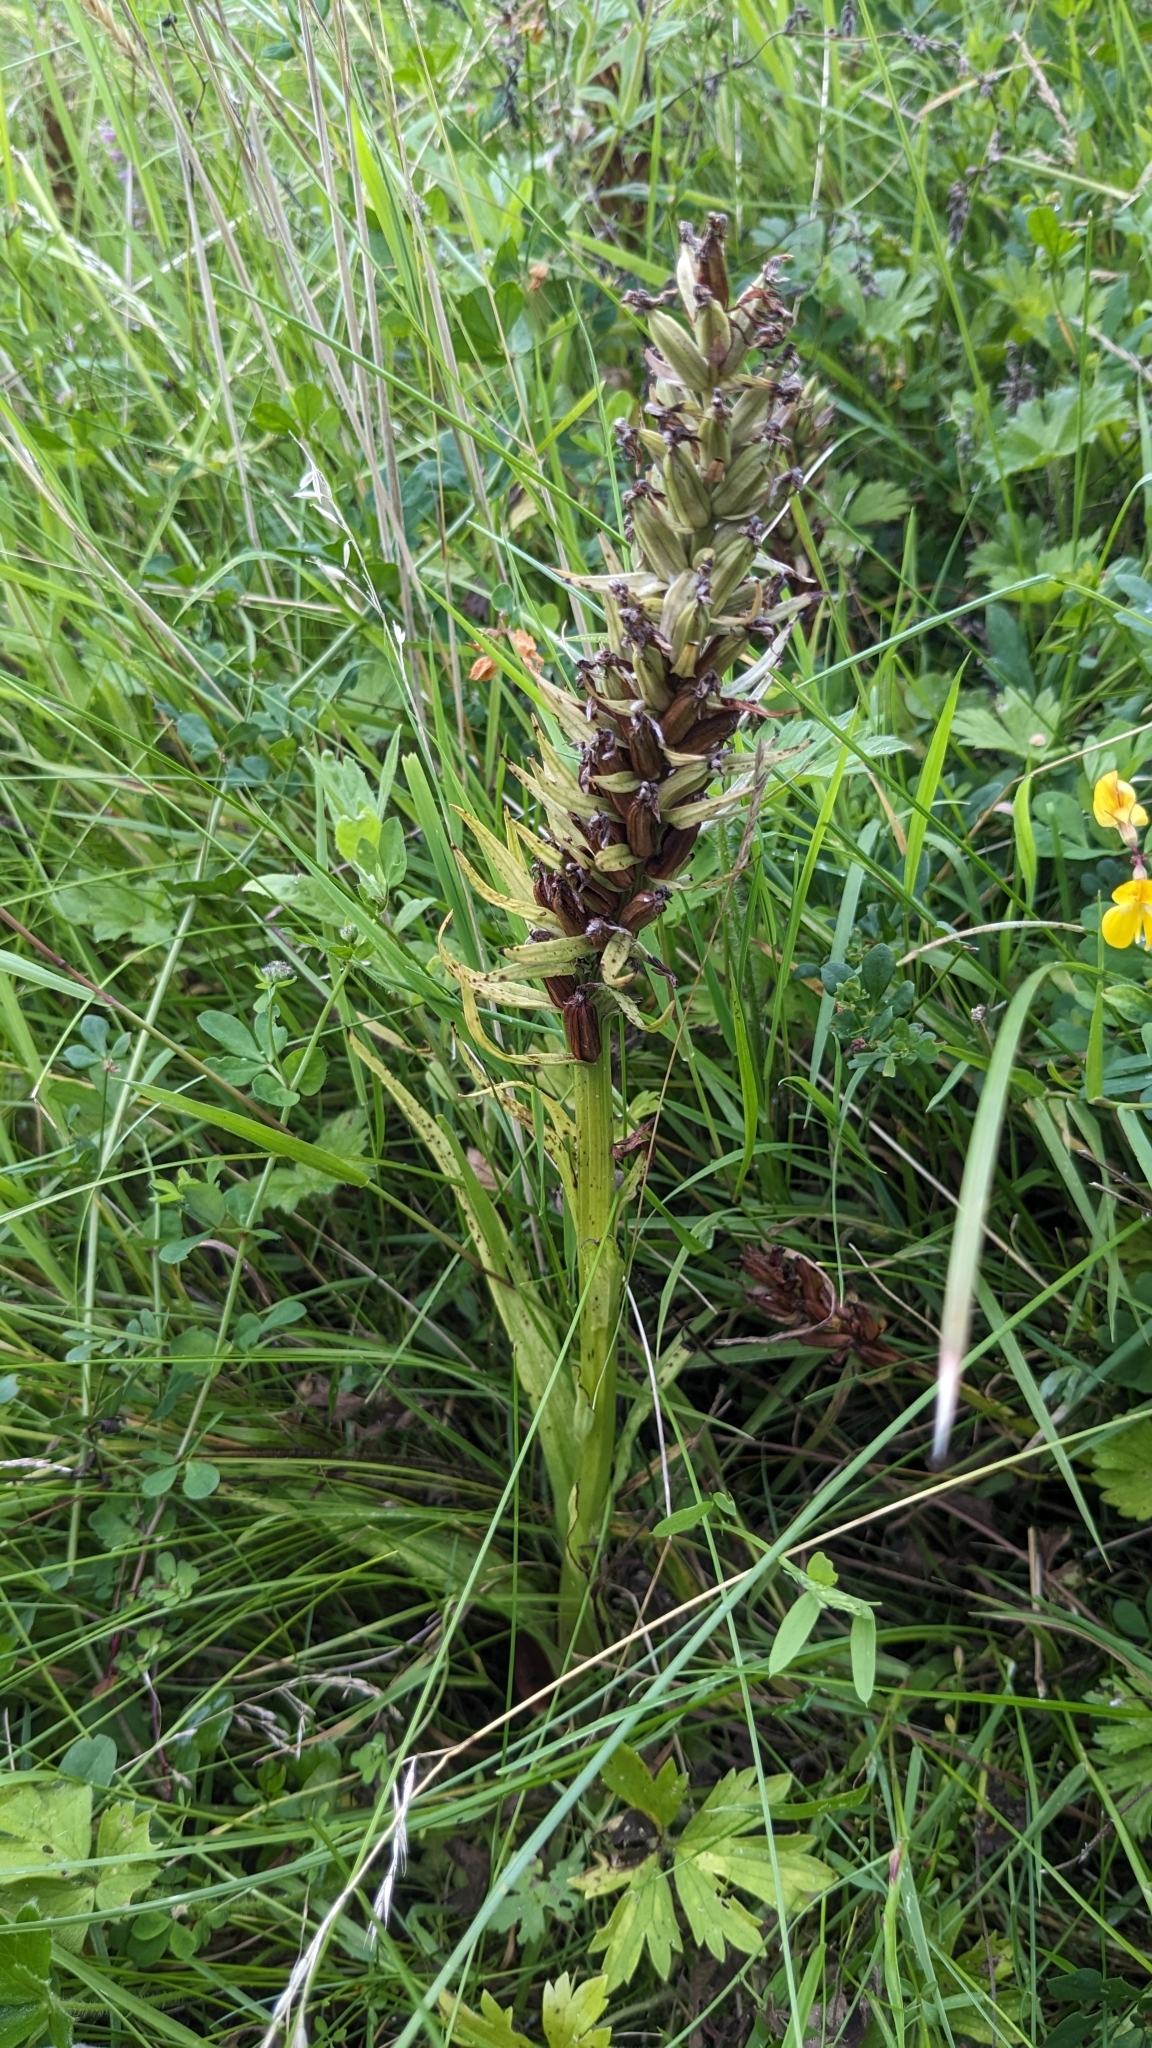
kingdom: Plantae
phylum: Tracheophyta
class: Liliopsida
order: Asparagales
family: Orchidaceae
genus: Dactylorhiza
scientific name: Dactylorhiza majalis
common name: Marsh orchid
